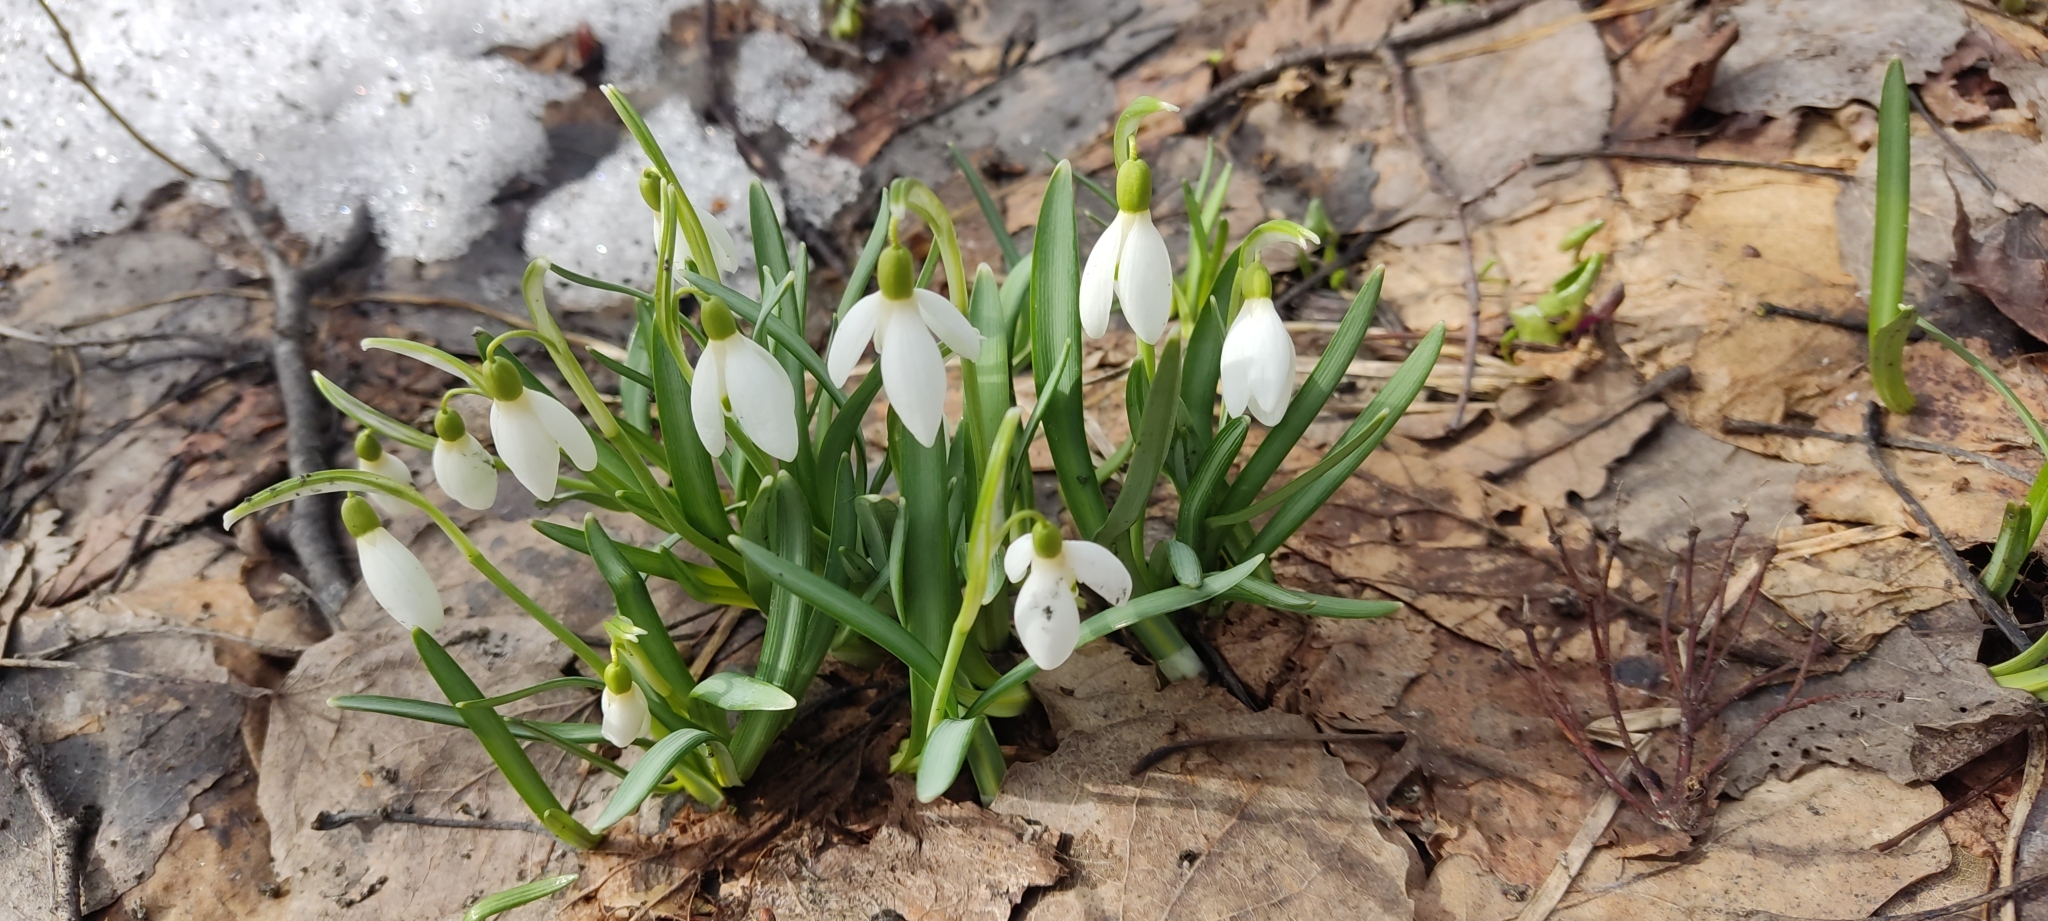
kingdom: Plantae
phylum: Tracheophyta
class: Liliopsida
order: Asparagales
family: Amaryllidaceae
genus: Galanthus
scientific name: Galanthus nivalis
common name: Snowdrop
